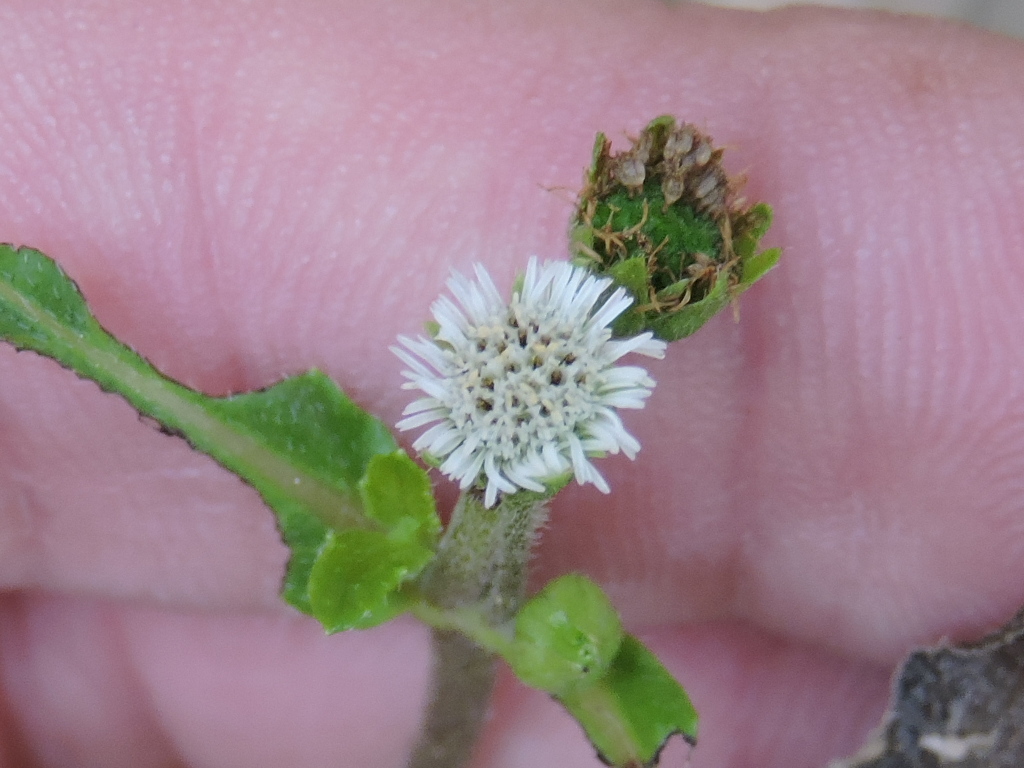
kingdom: Plantae
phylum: Tracheophyta
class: Magnoliopsida
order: Asterales
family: Asteraceae
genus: Eclipta
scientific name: Eclipta prostrata
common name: False daisy
